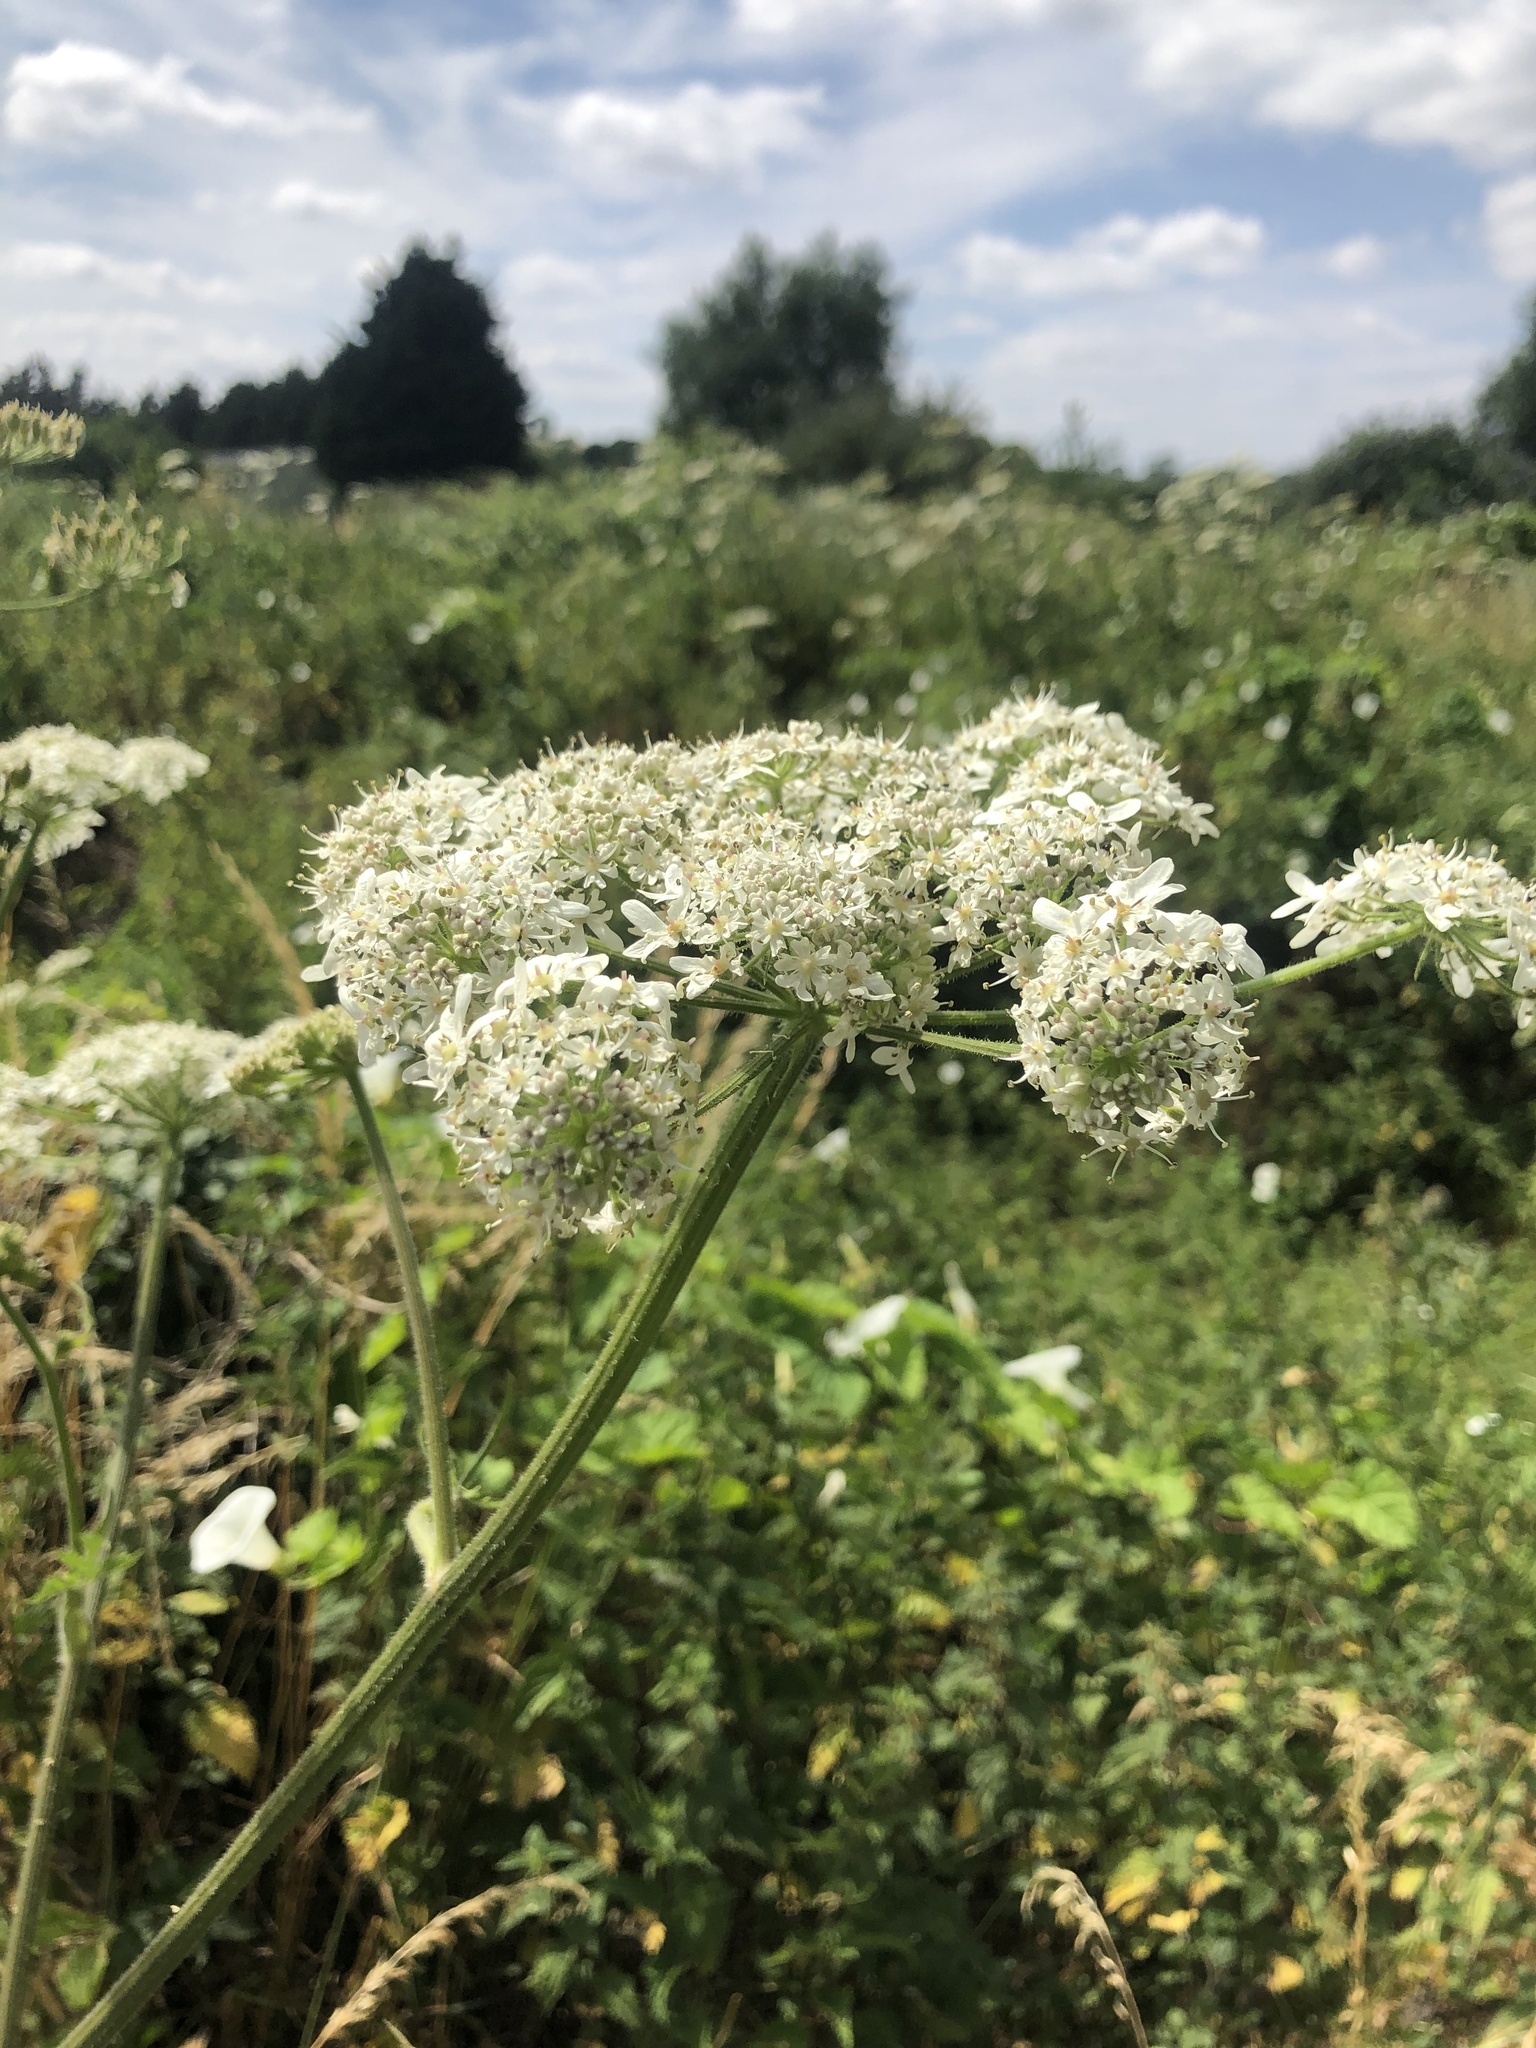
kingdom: Plantae
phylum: Tracheophyta
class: Magnoliopsida
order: Apiales
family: Apiaceae
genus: Heracleum
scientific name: Heracleum sphondylium
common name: Hogweed
